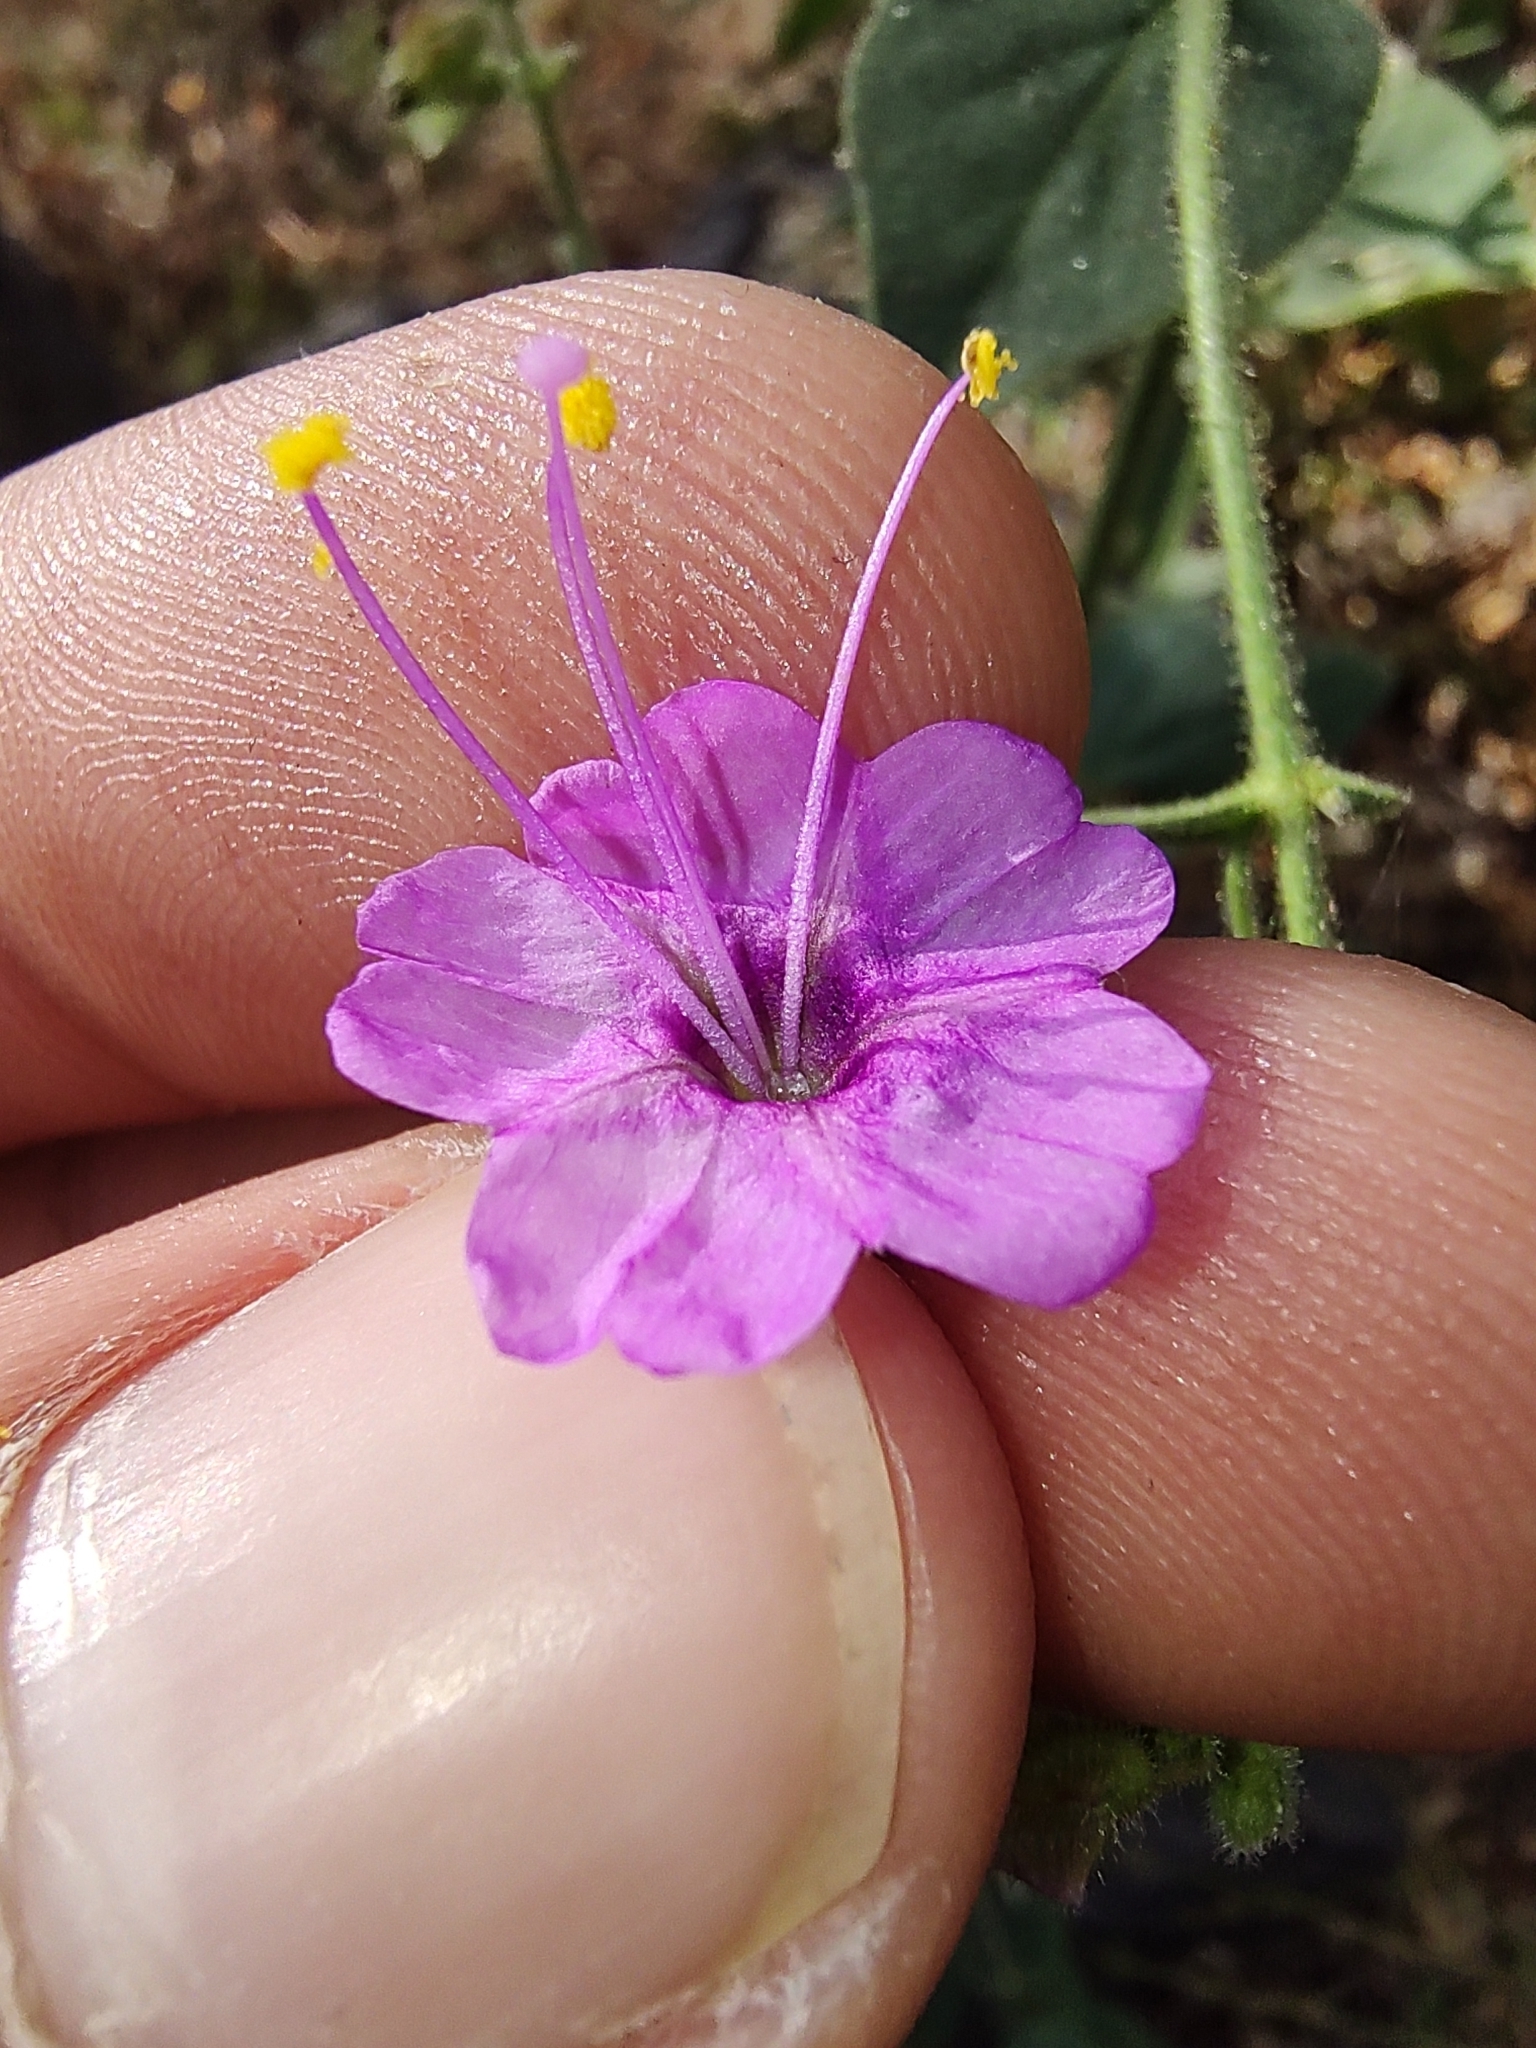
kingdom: Plantae
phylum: Tracheophyta
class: Magnoliopsida
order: Caryophyllales
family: Nyctaginaceae
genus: Mirabilis
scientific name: Mirabilis viscosa
